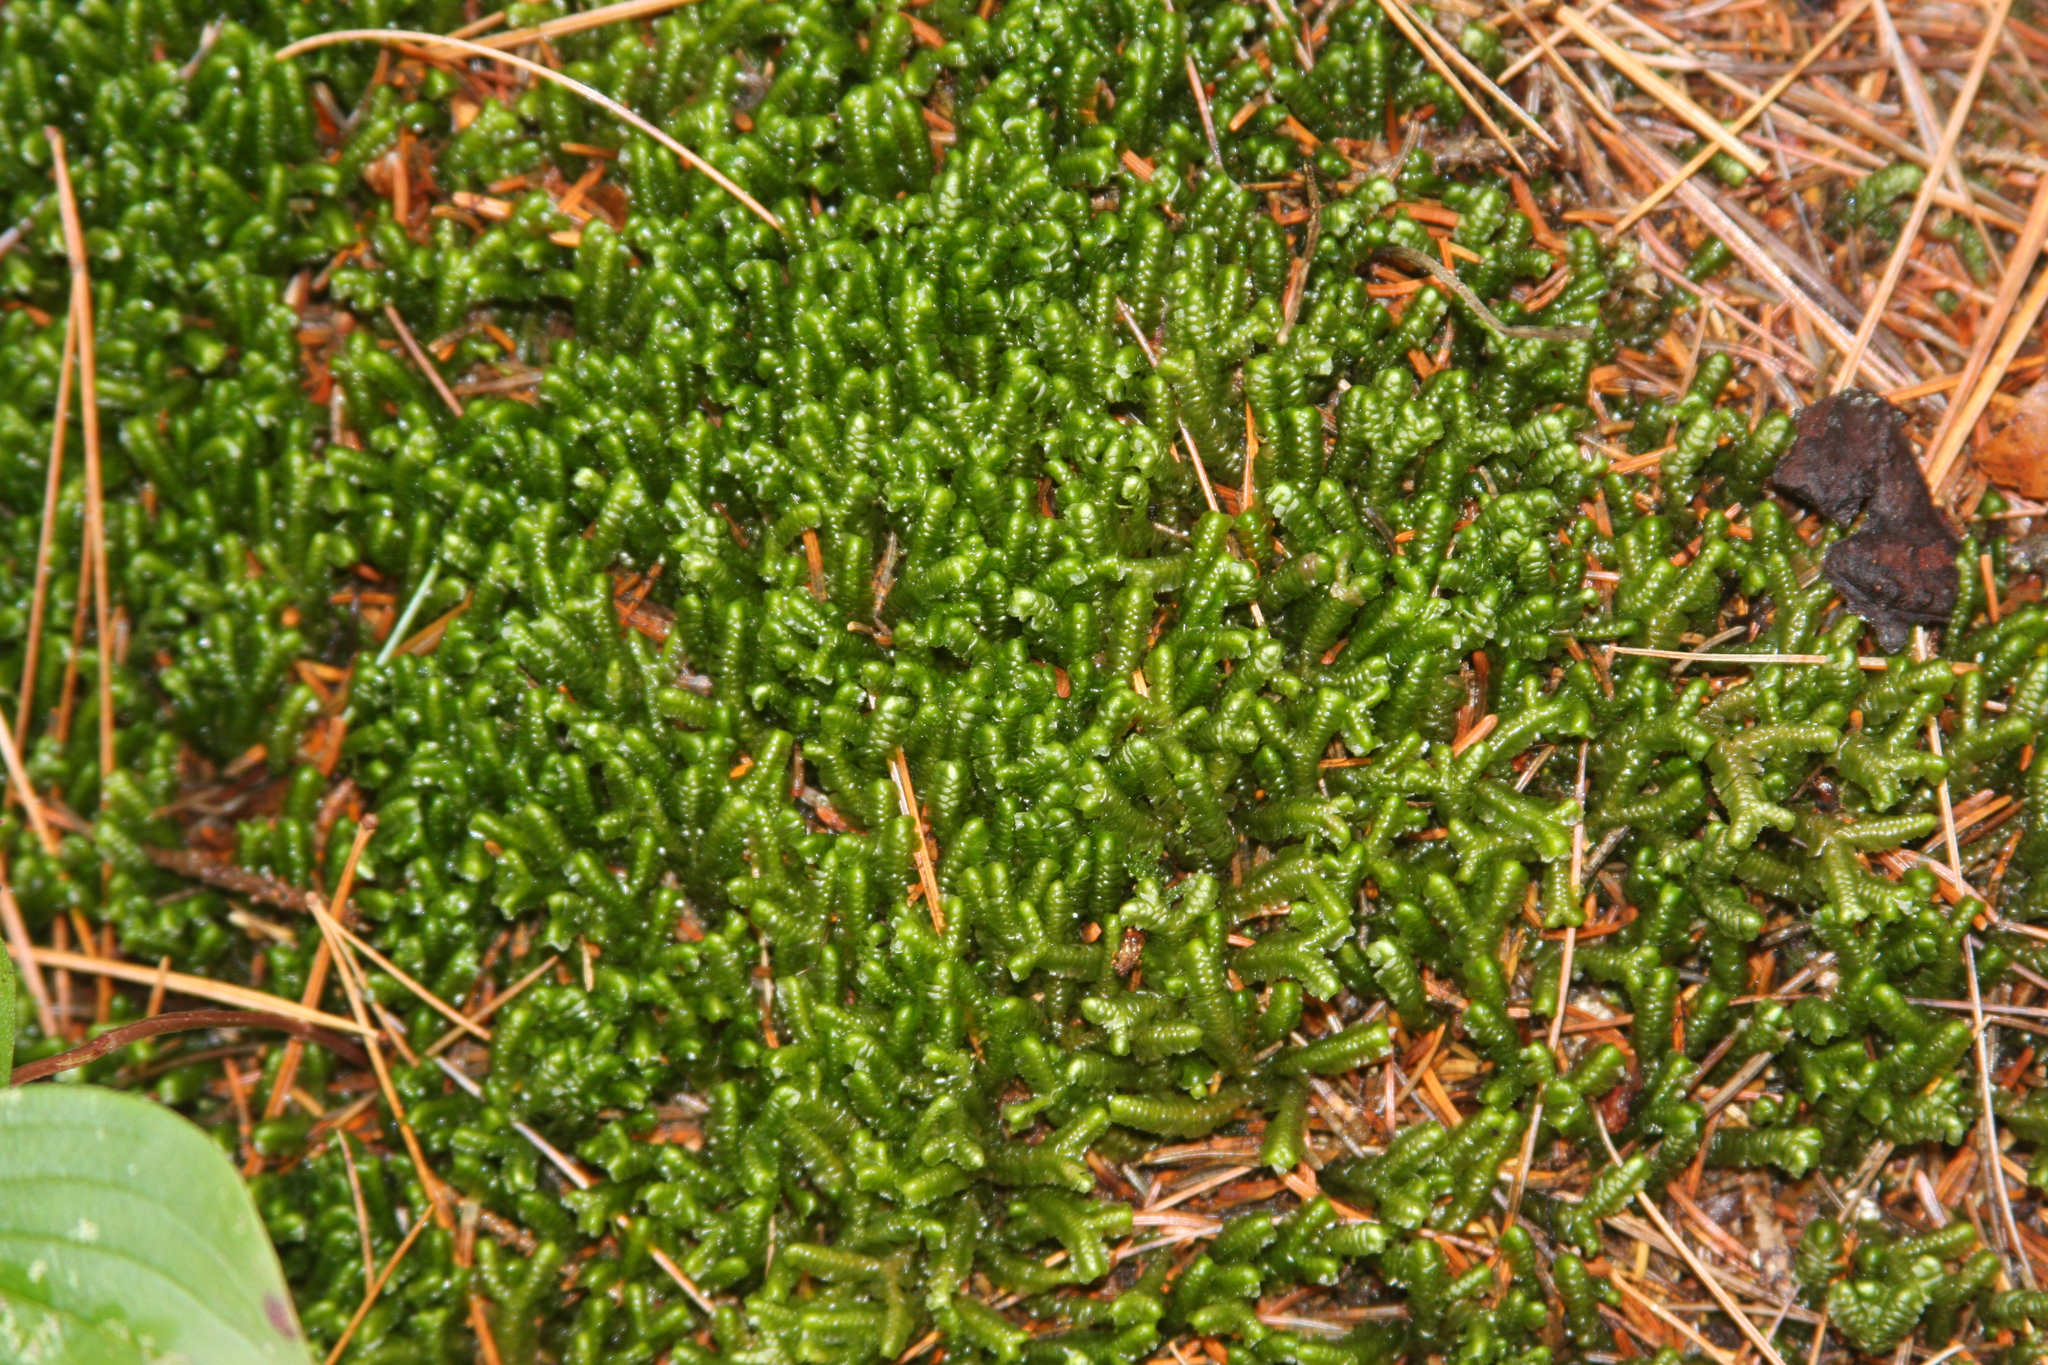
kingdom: Plantae
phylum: Marchantiophyta
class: Jungermanniopsida
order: Jungermanniales
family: Lepidoziaceae
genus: Bazzania
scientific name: Bazzania trilobata
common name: Three-lobed whipwort
